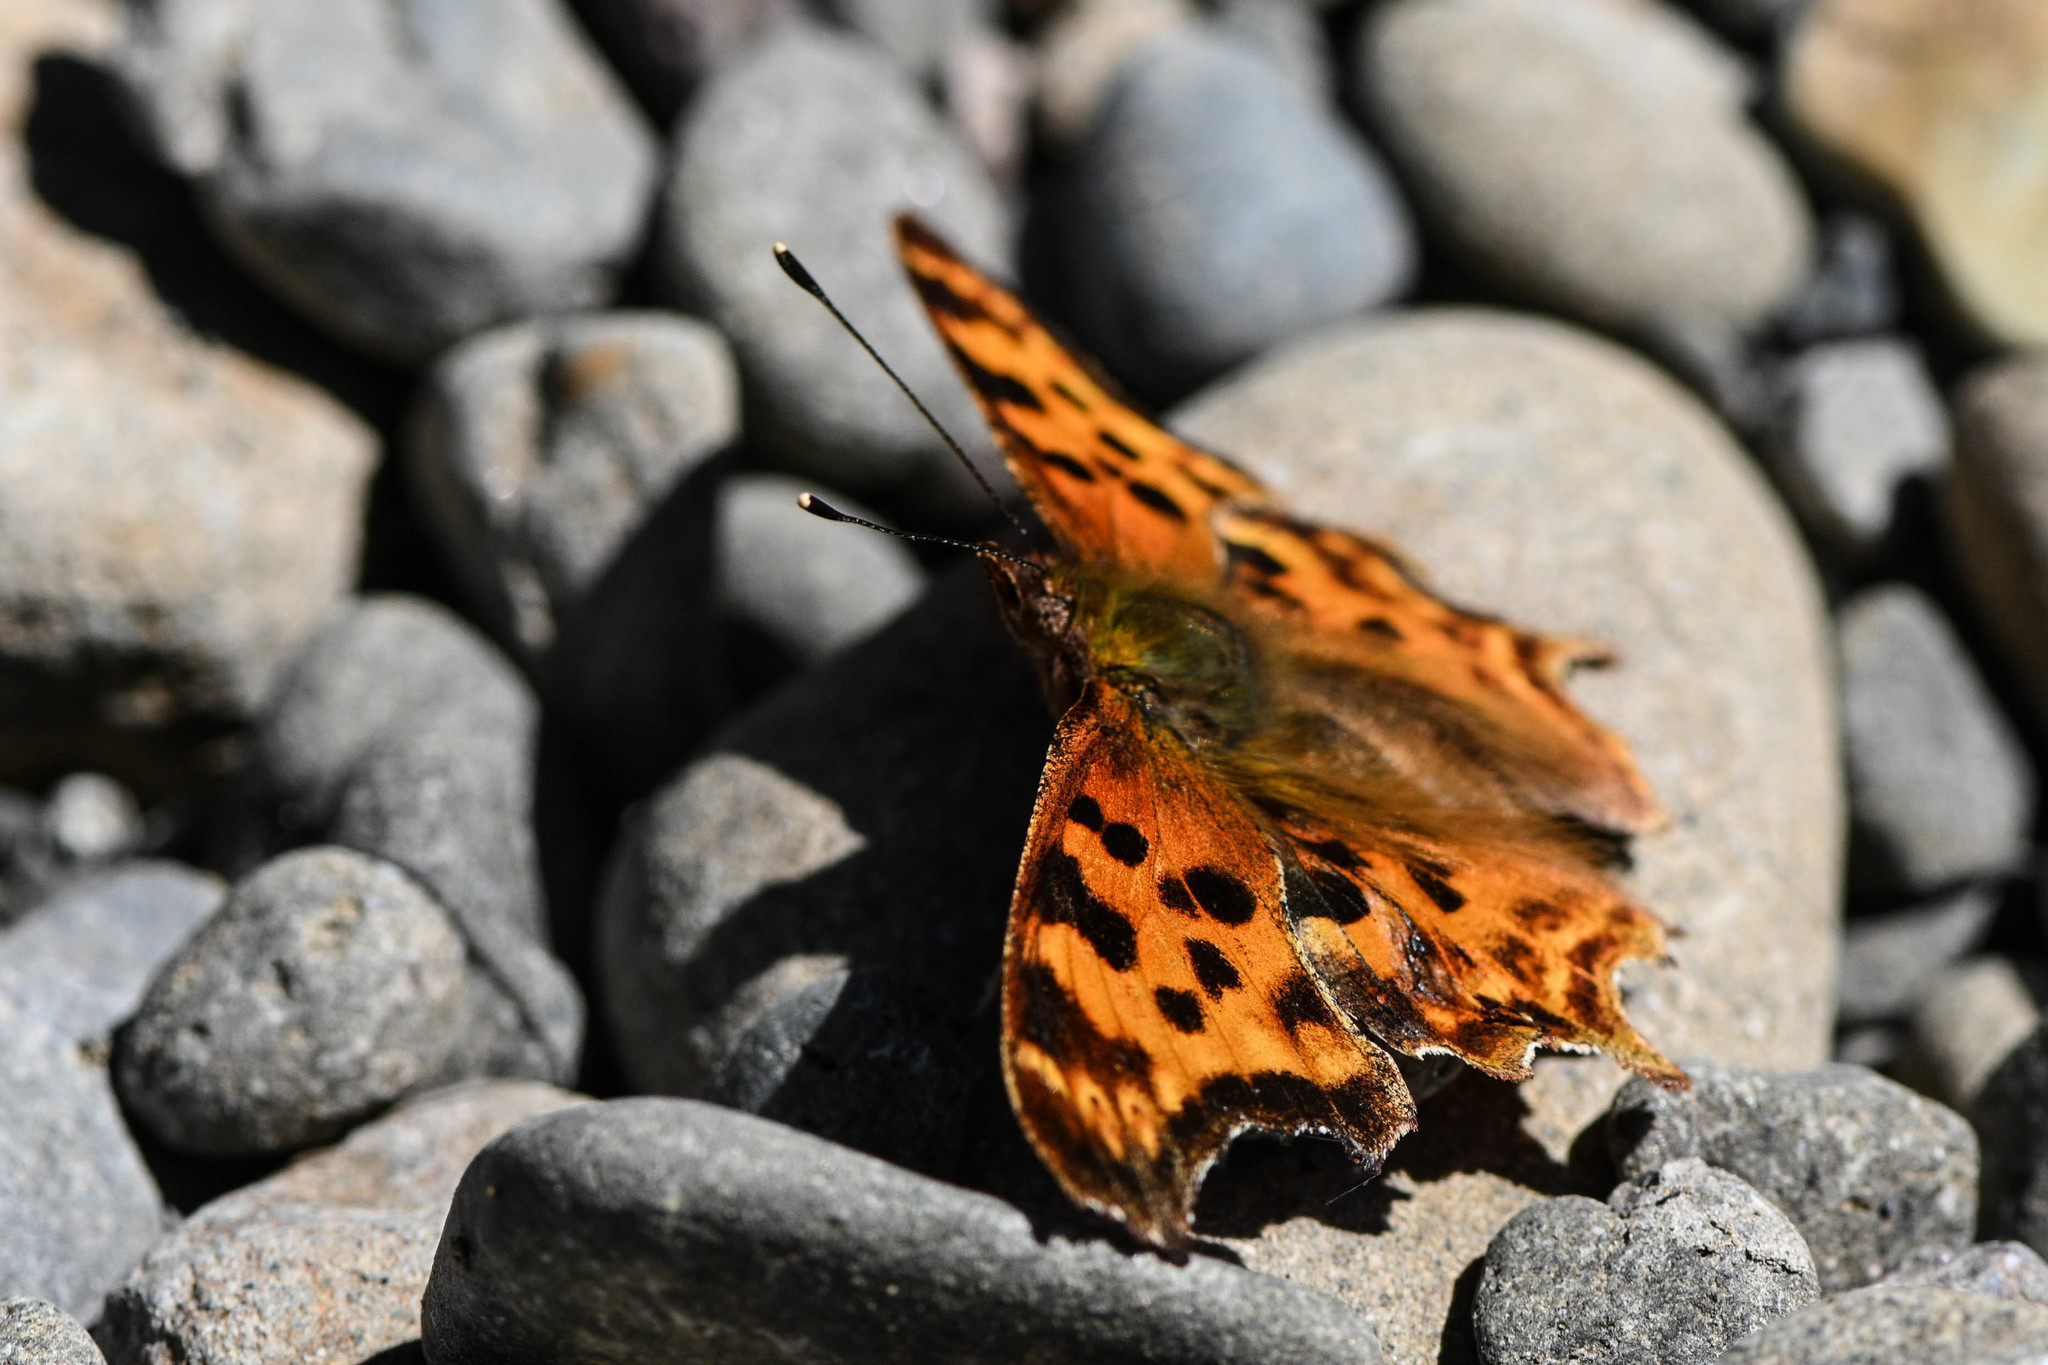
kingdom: Animalia
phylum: Arthropoda
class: Insecta
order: Lepidoptera
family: Nymphalidae
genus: Polygonia
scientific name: Polygonia satyrus
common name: Satyr angle wing
